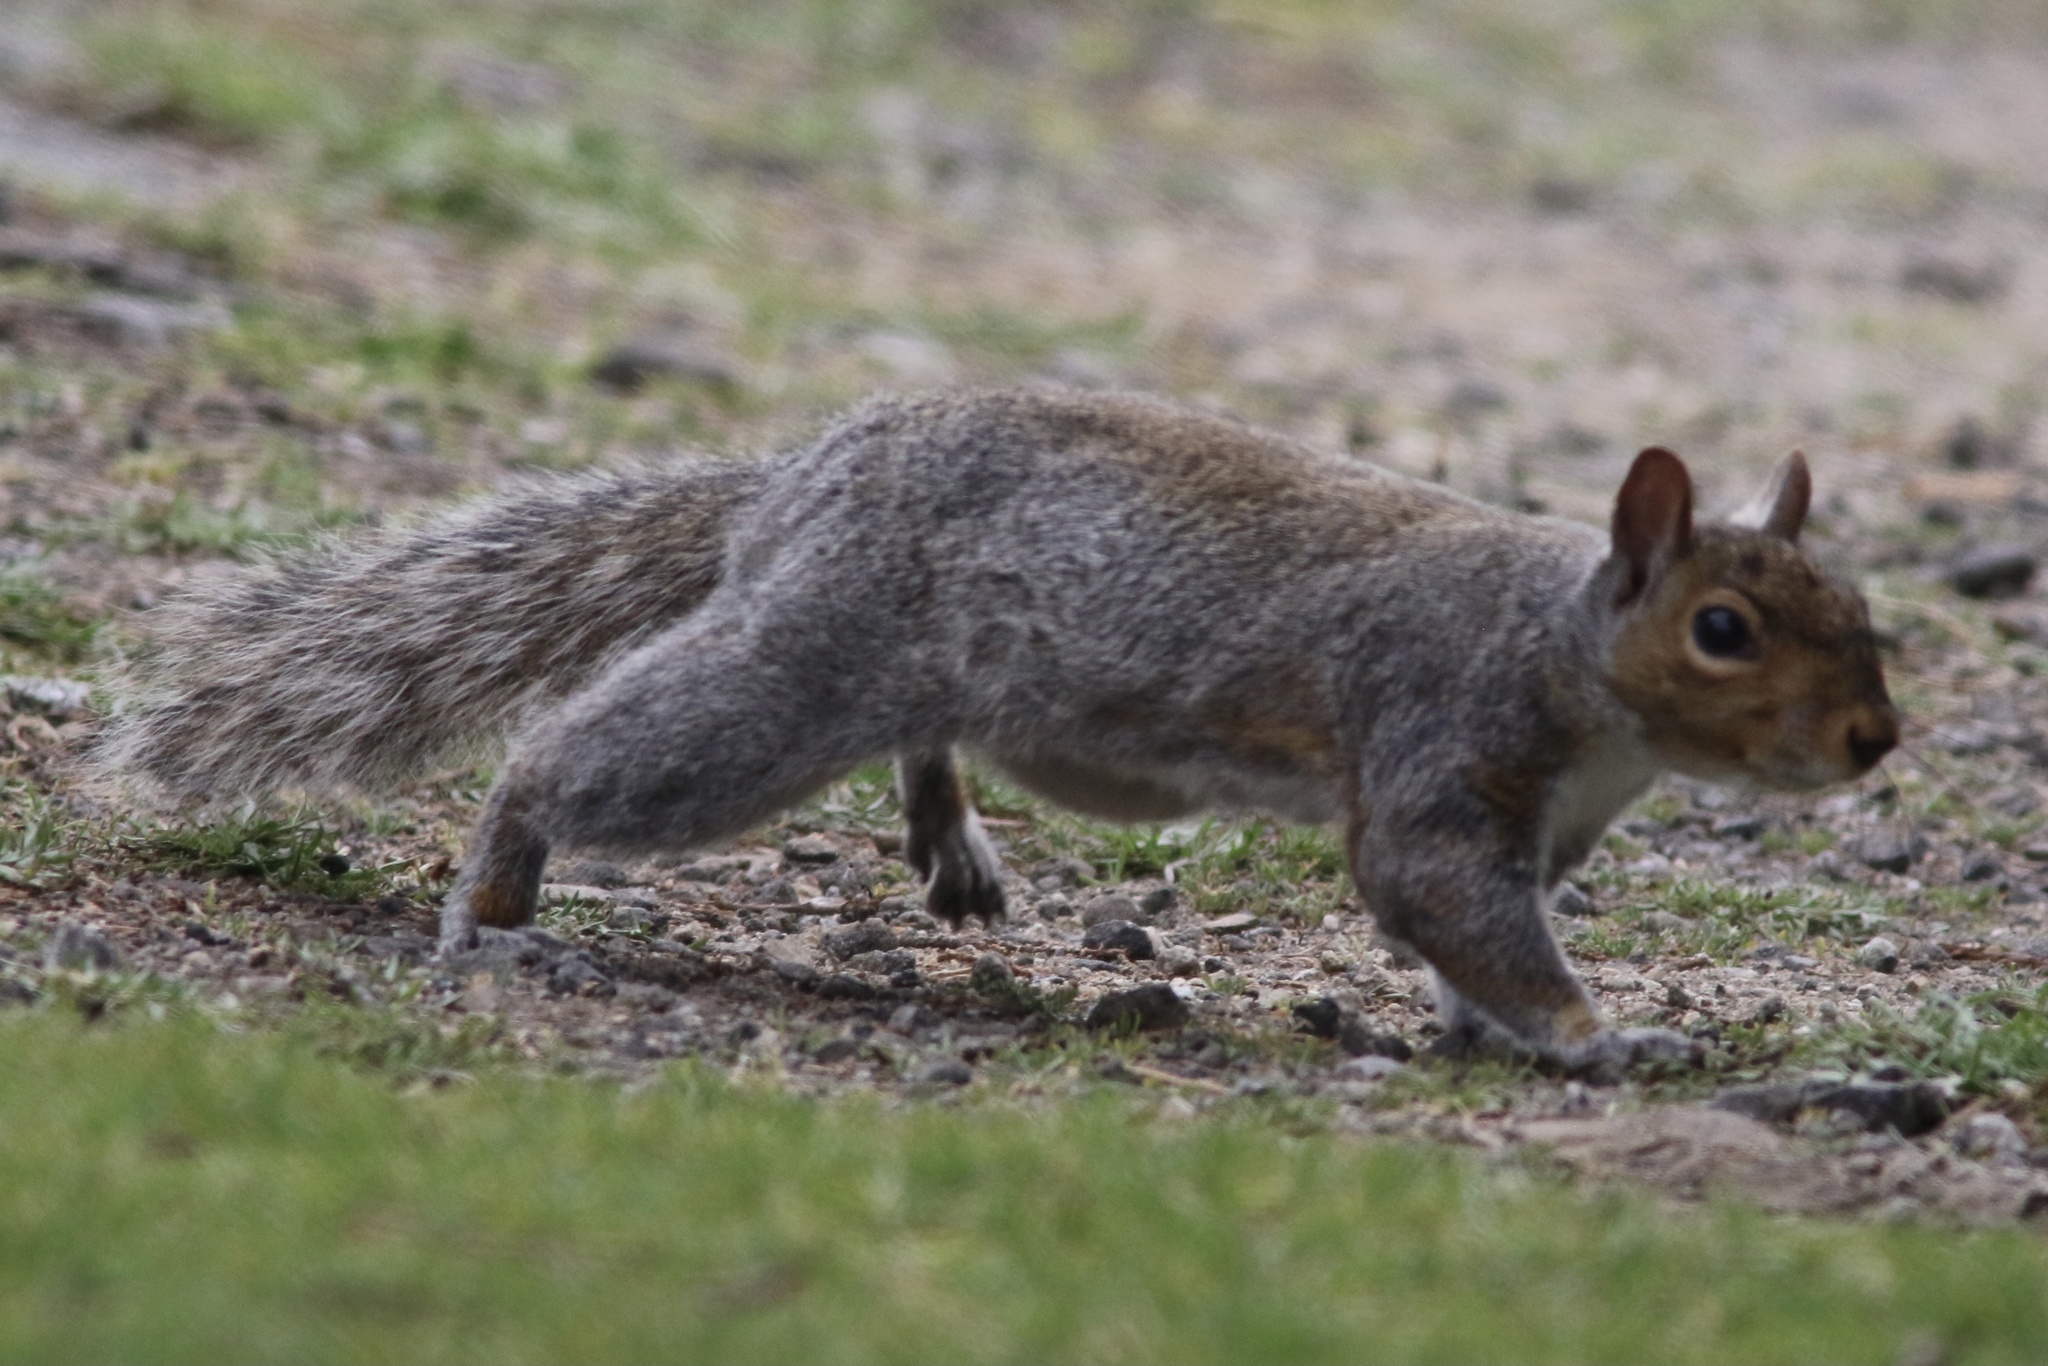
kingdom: Animalia
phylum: Chordata
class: Mammalia
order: Rodentia
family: Sciuridae
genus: Sciurus
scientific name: Sciurus carolinensis
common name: Eastern gray squirrel
